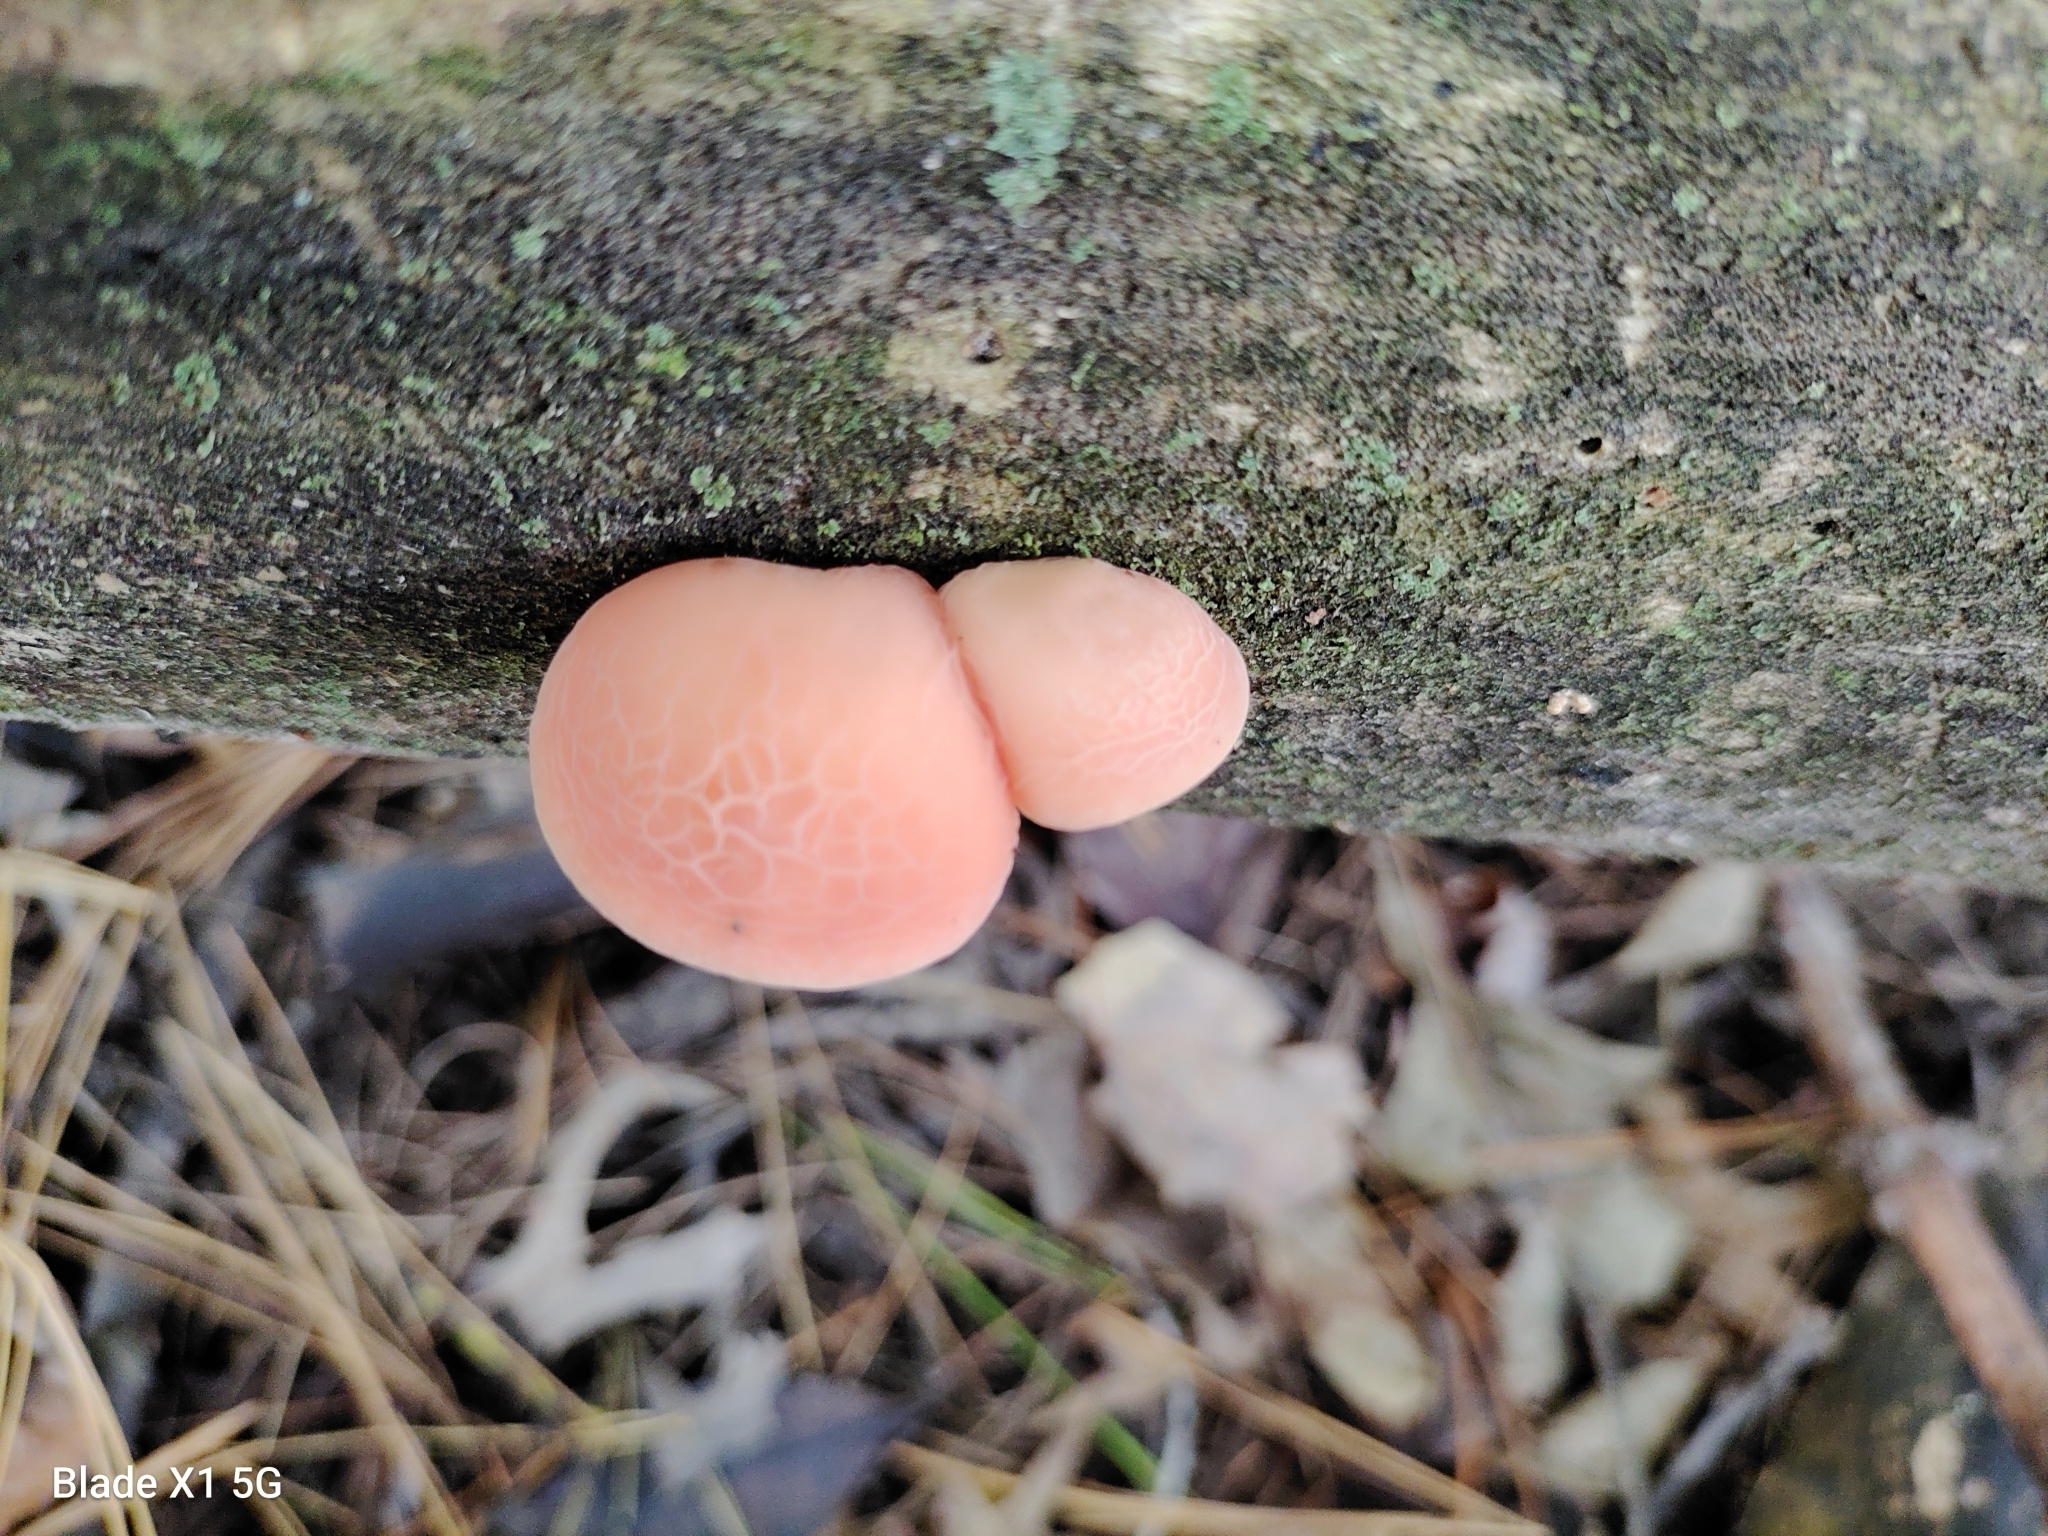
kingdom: Fungi
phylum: Basidiomycota
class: Agaricomycetes
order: Agaricales
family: Physalacriaceae
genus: Rhodotus
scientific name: Rhodotus palmatus
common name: Wrinkled peach
